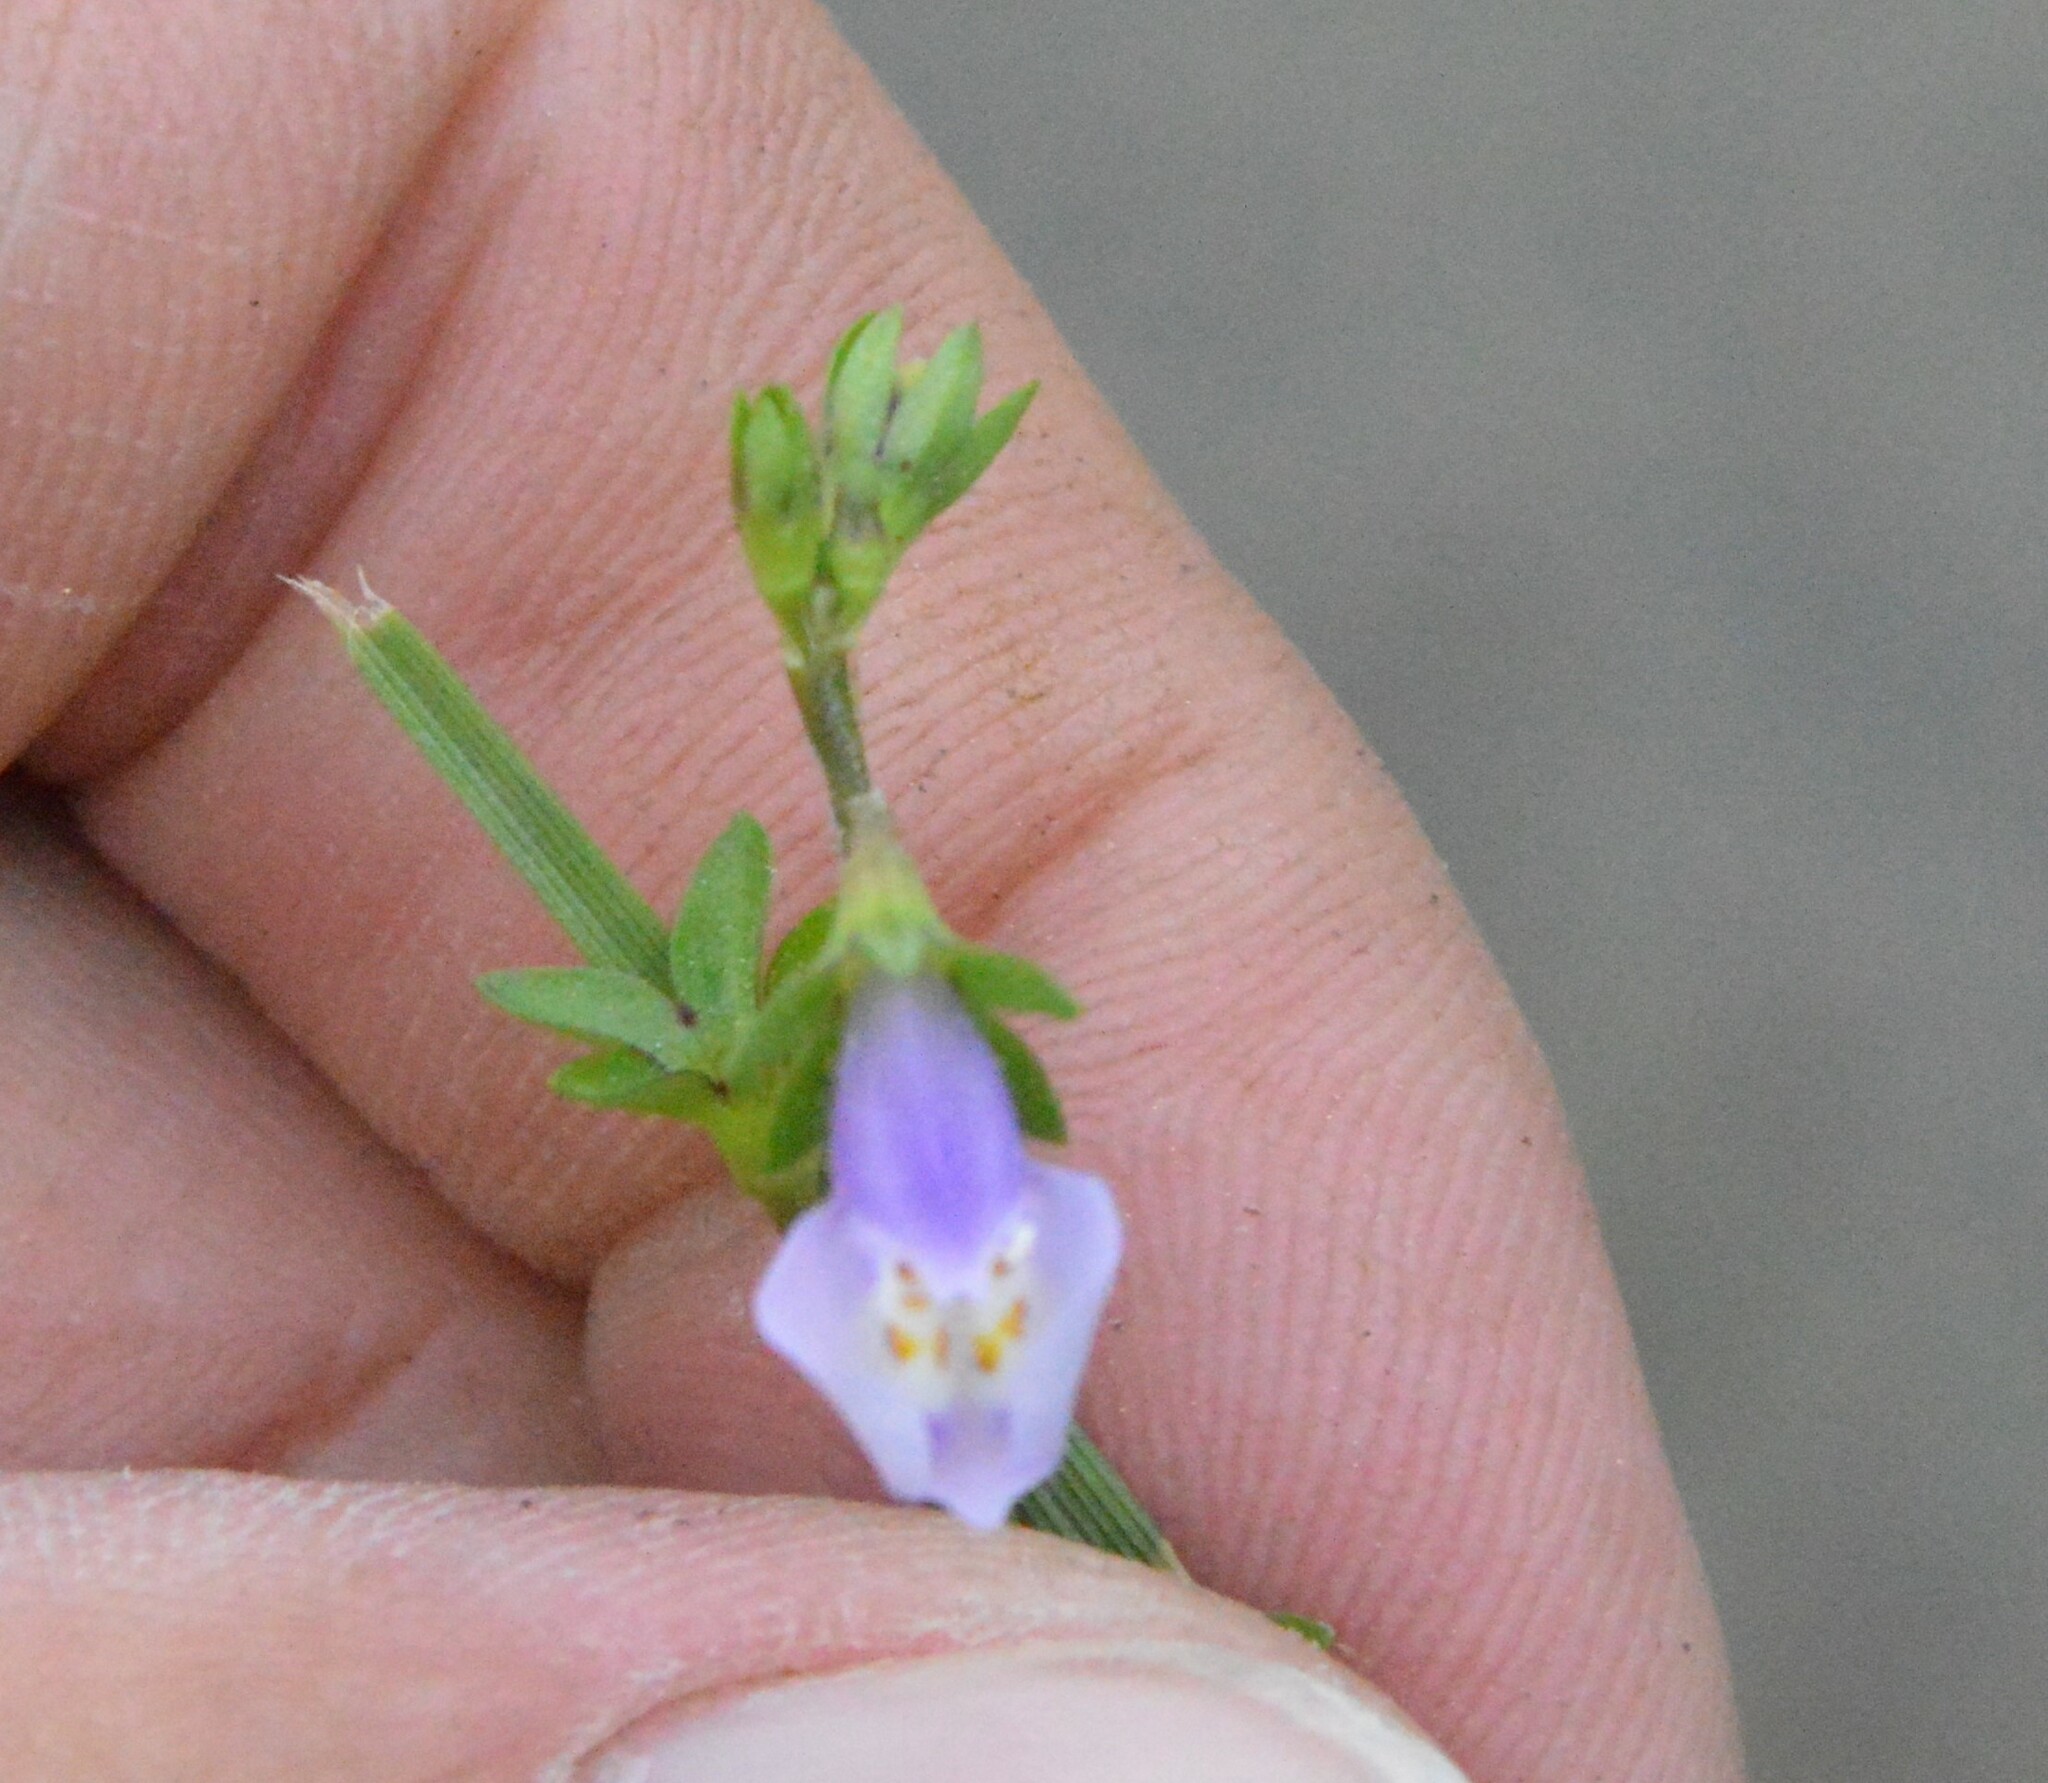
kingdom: Plantae
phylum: Tracheophyta
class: Magnoliopsida
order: Lamiales
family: Mazaceae
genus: Mazus
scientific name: Mazus pumilus
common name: Japanese mazus
